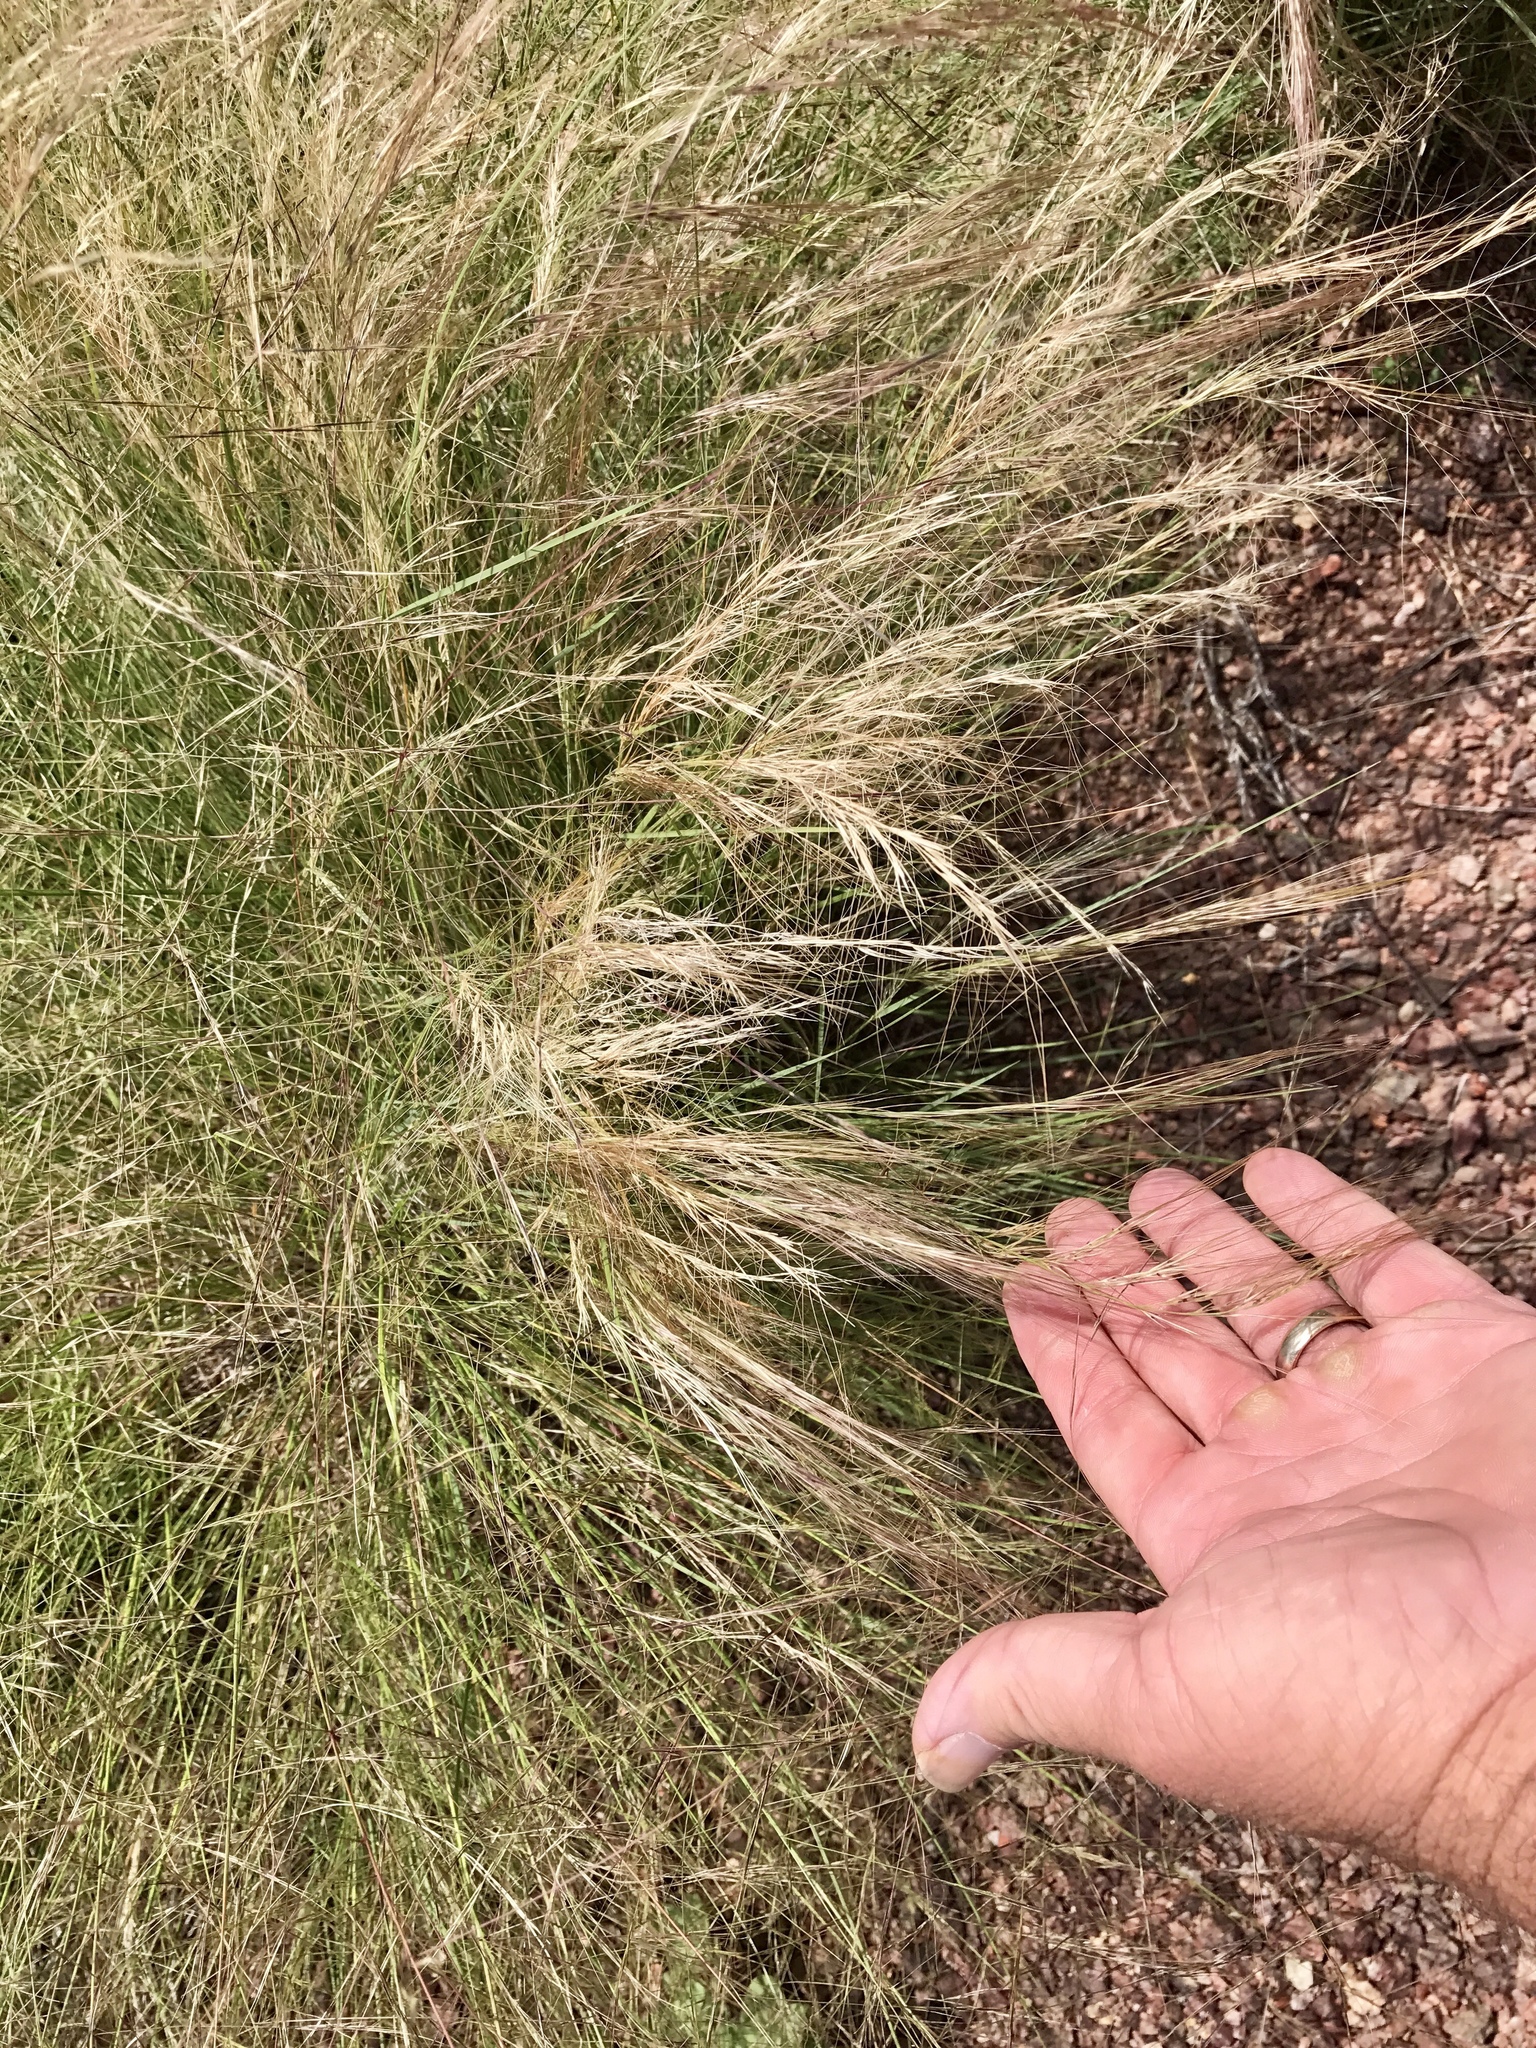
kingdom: Plantae
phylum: Tracheophyta
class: Liliopsida
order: Poales
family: Poaceae
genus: Aristida
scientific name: Aristida purpurea
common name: Purple threeawn
